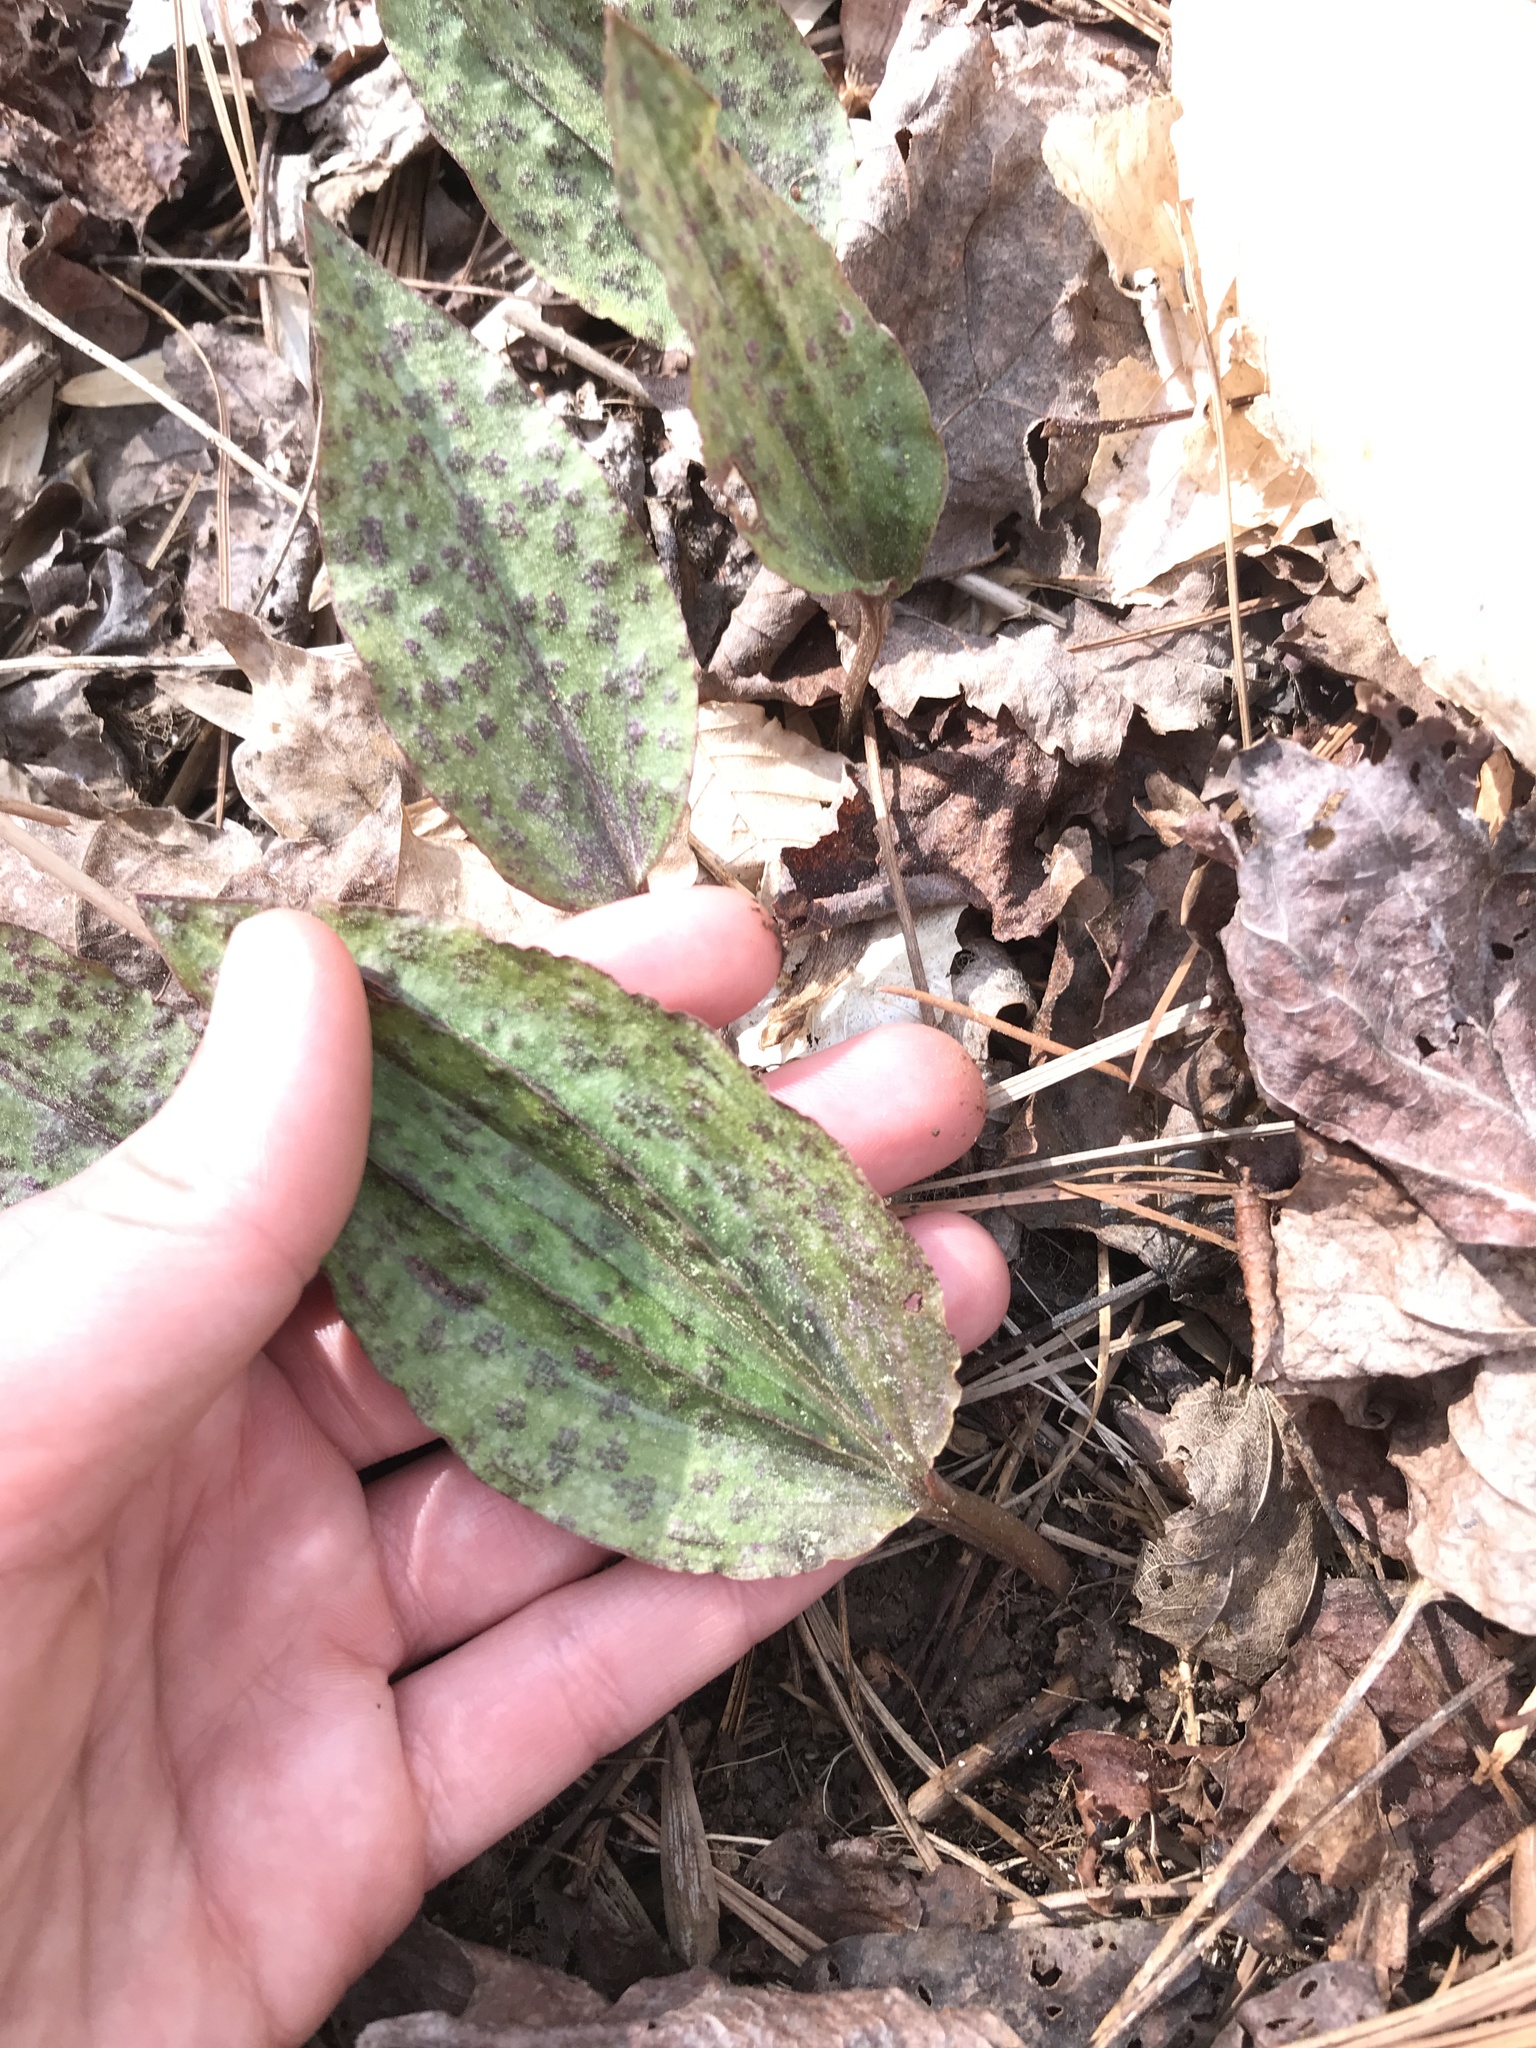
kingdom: Plantae
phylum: Tracheophyta
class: Liliopsida
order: Asparagales
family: Orchidaceae
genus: Tipularia
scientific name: Tipularia discolor
